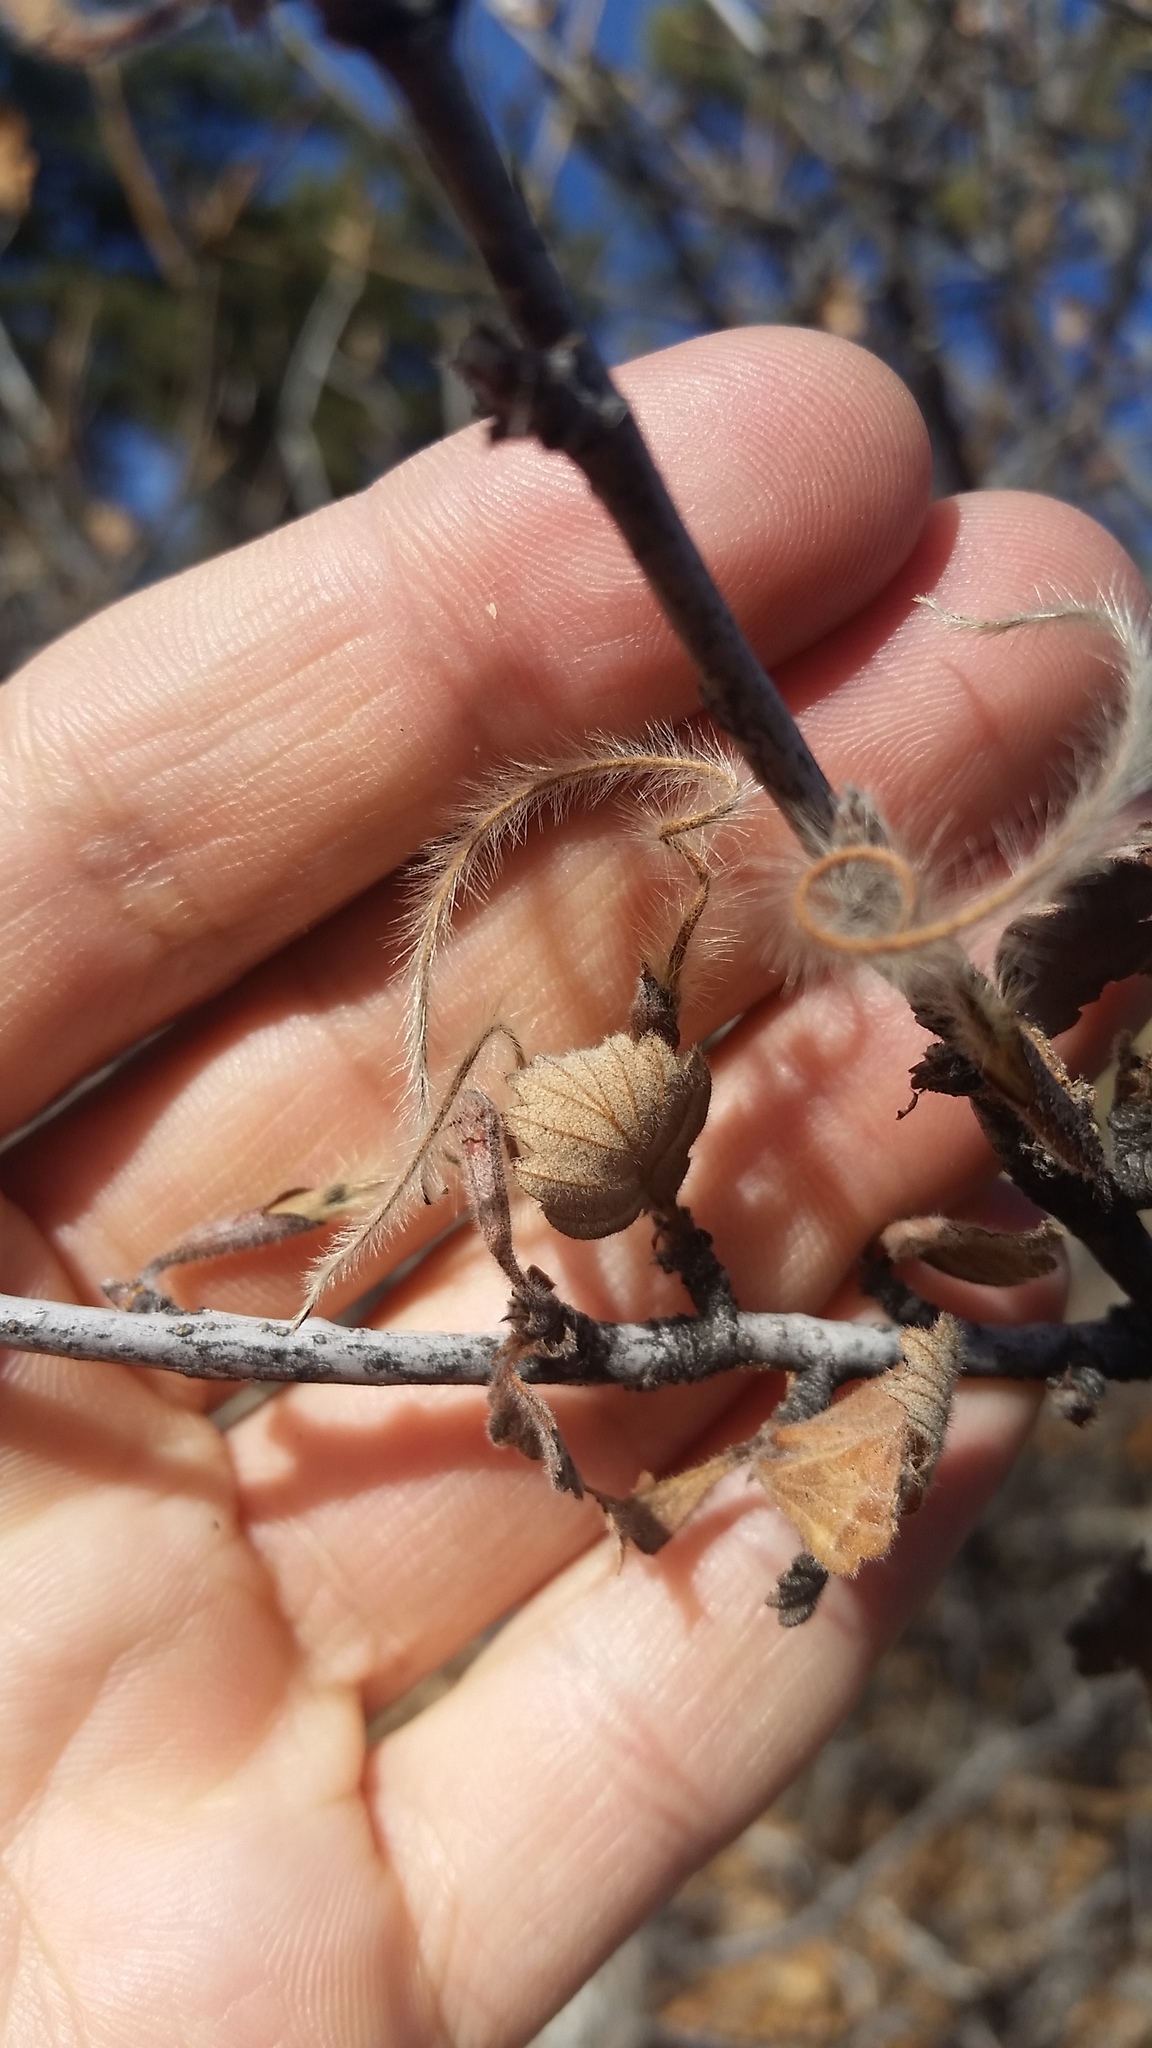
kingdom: Plantae
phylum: Tracheophyta
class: Magnoliopsida
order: Rosales
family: Rosaceae
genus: Cercocarpus
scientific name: Cercocarpus montanus
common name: Alder-leaf cercocarpus
